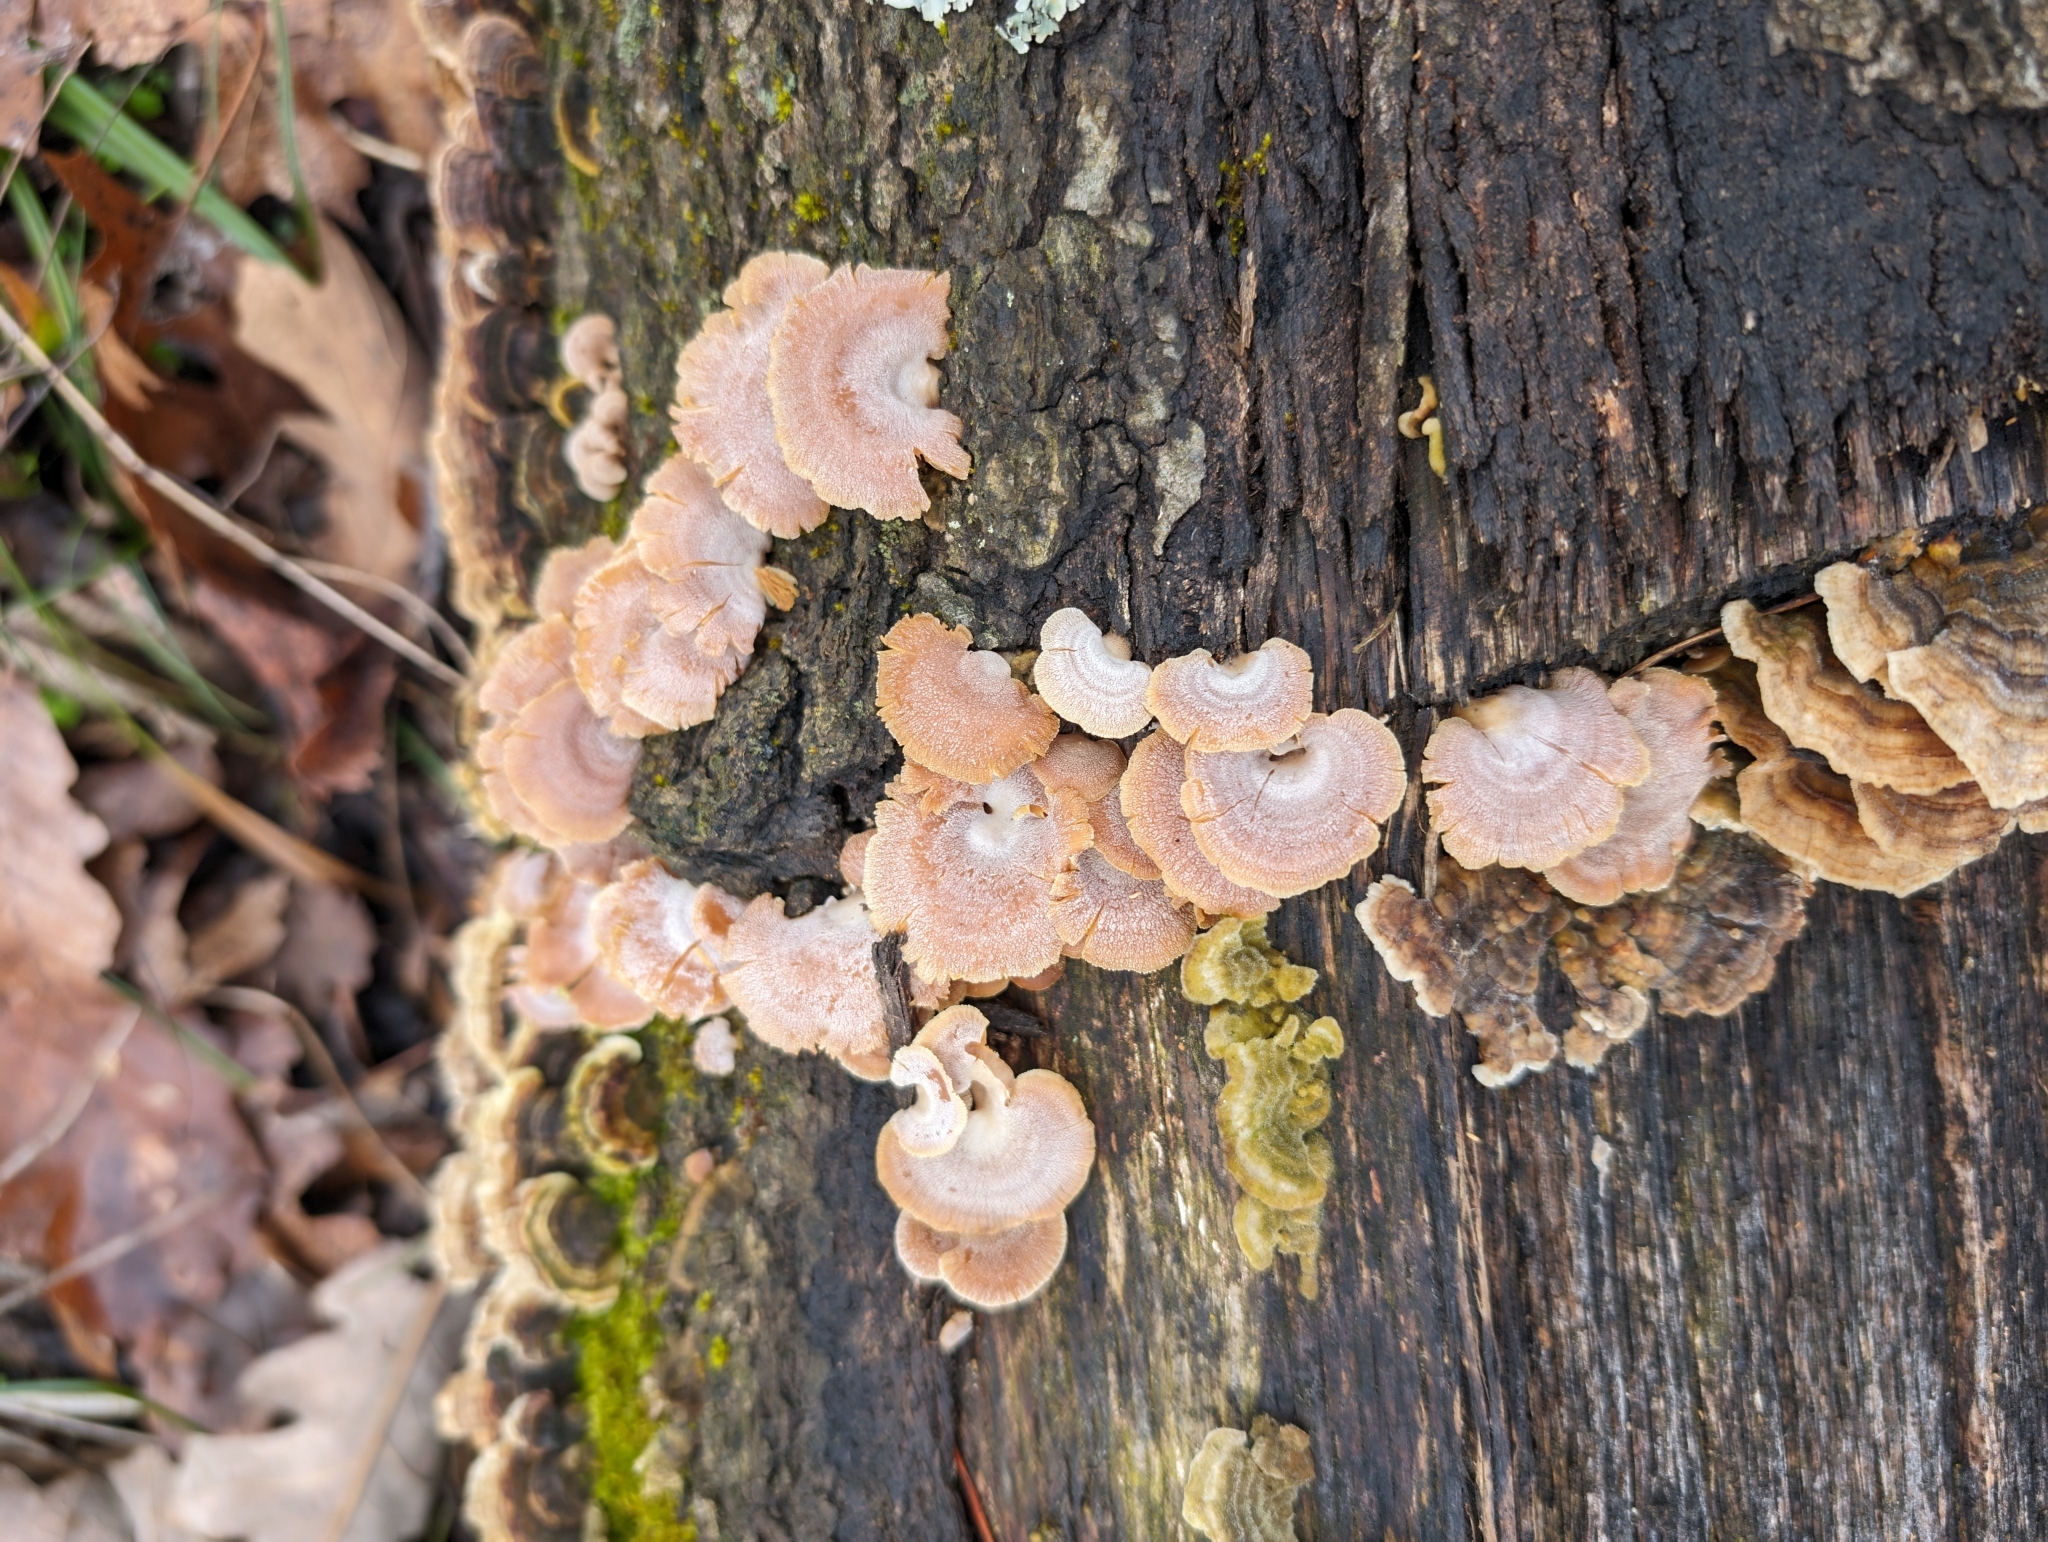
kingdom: Fungi
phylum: Basidiomycota
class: Agaricomycetes
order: Agaricales
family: Mycenaceae
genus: Panellus
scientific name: Panellus stipticus
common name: Bitter oysterling
